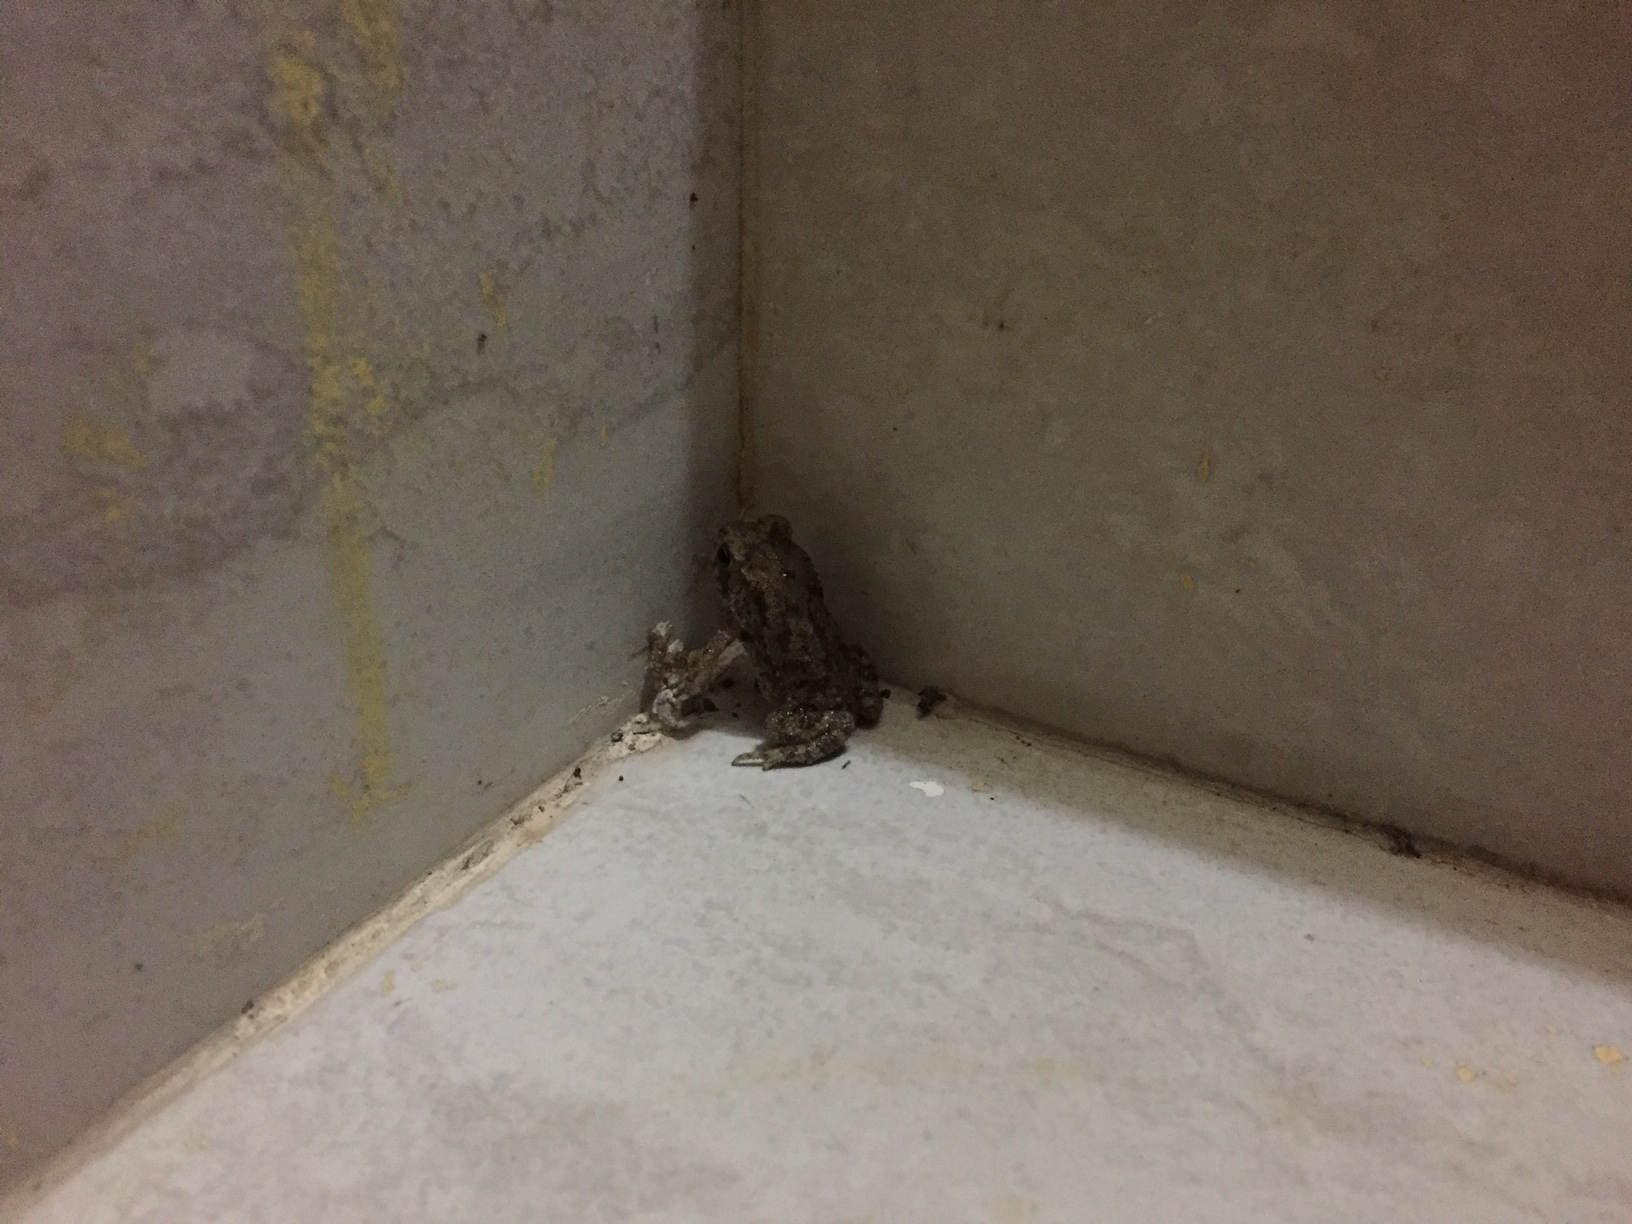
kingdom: Animalia
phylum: Chordata
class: Amphibia
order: Anura
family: Bufonidae
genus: Duttaphrynus
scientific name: Duttaphrynus melanostictus
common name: Common sunda toad
